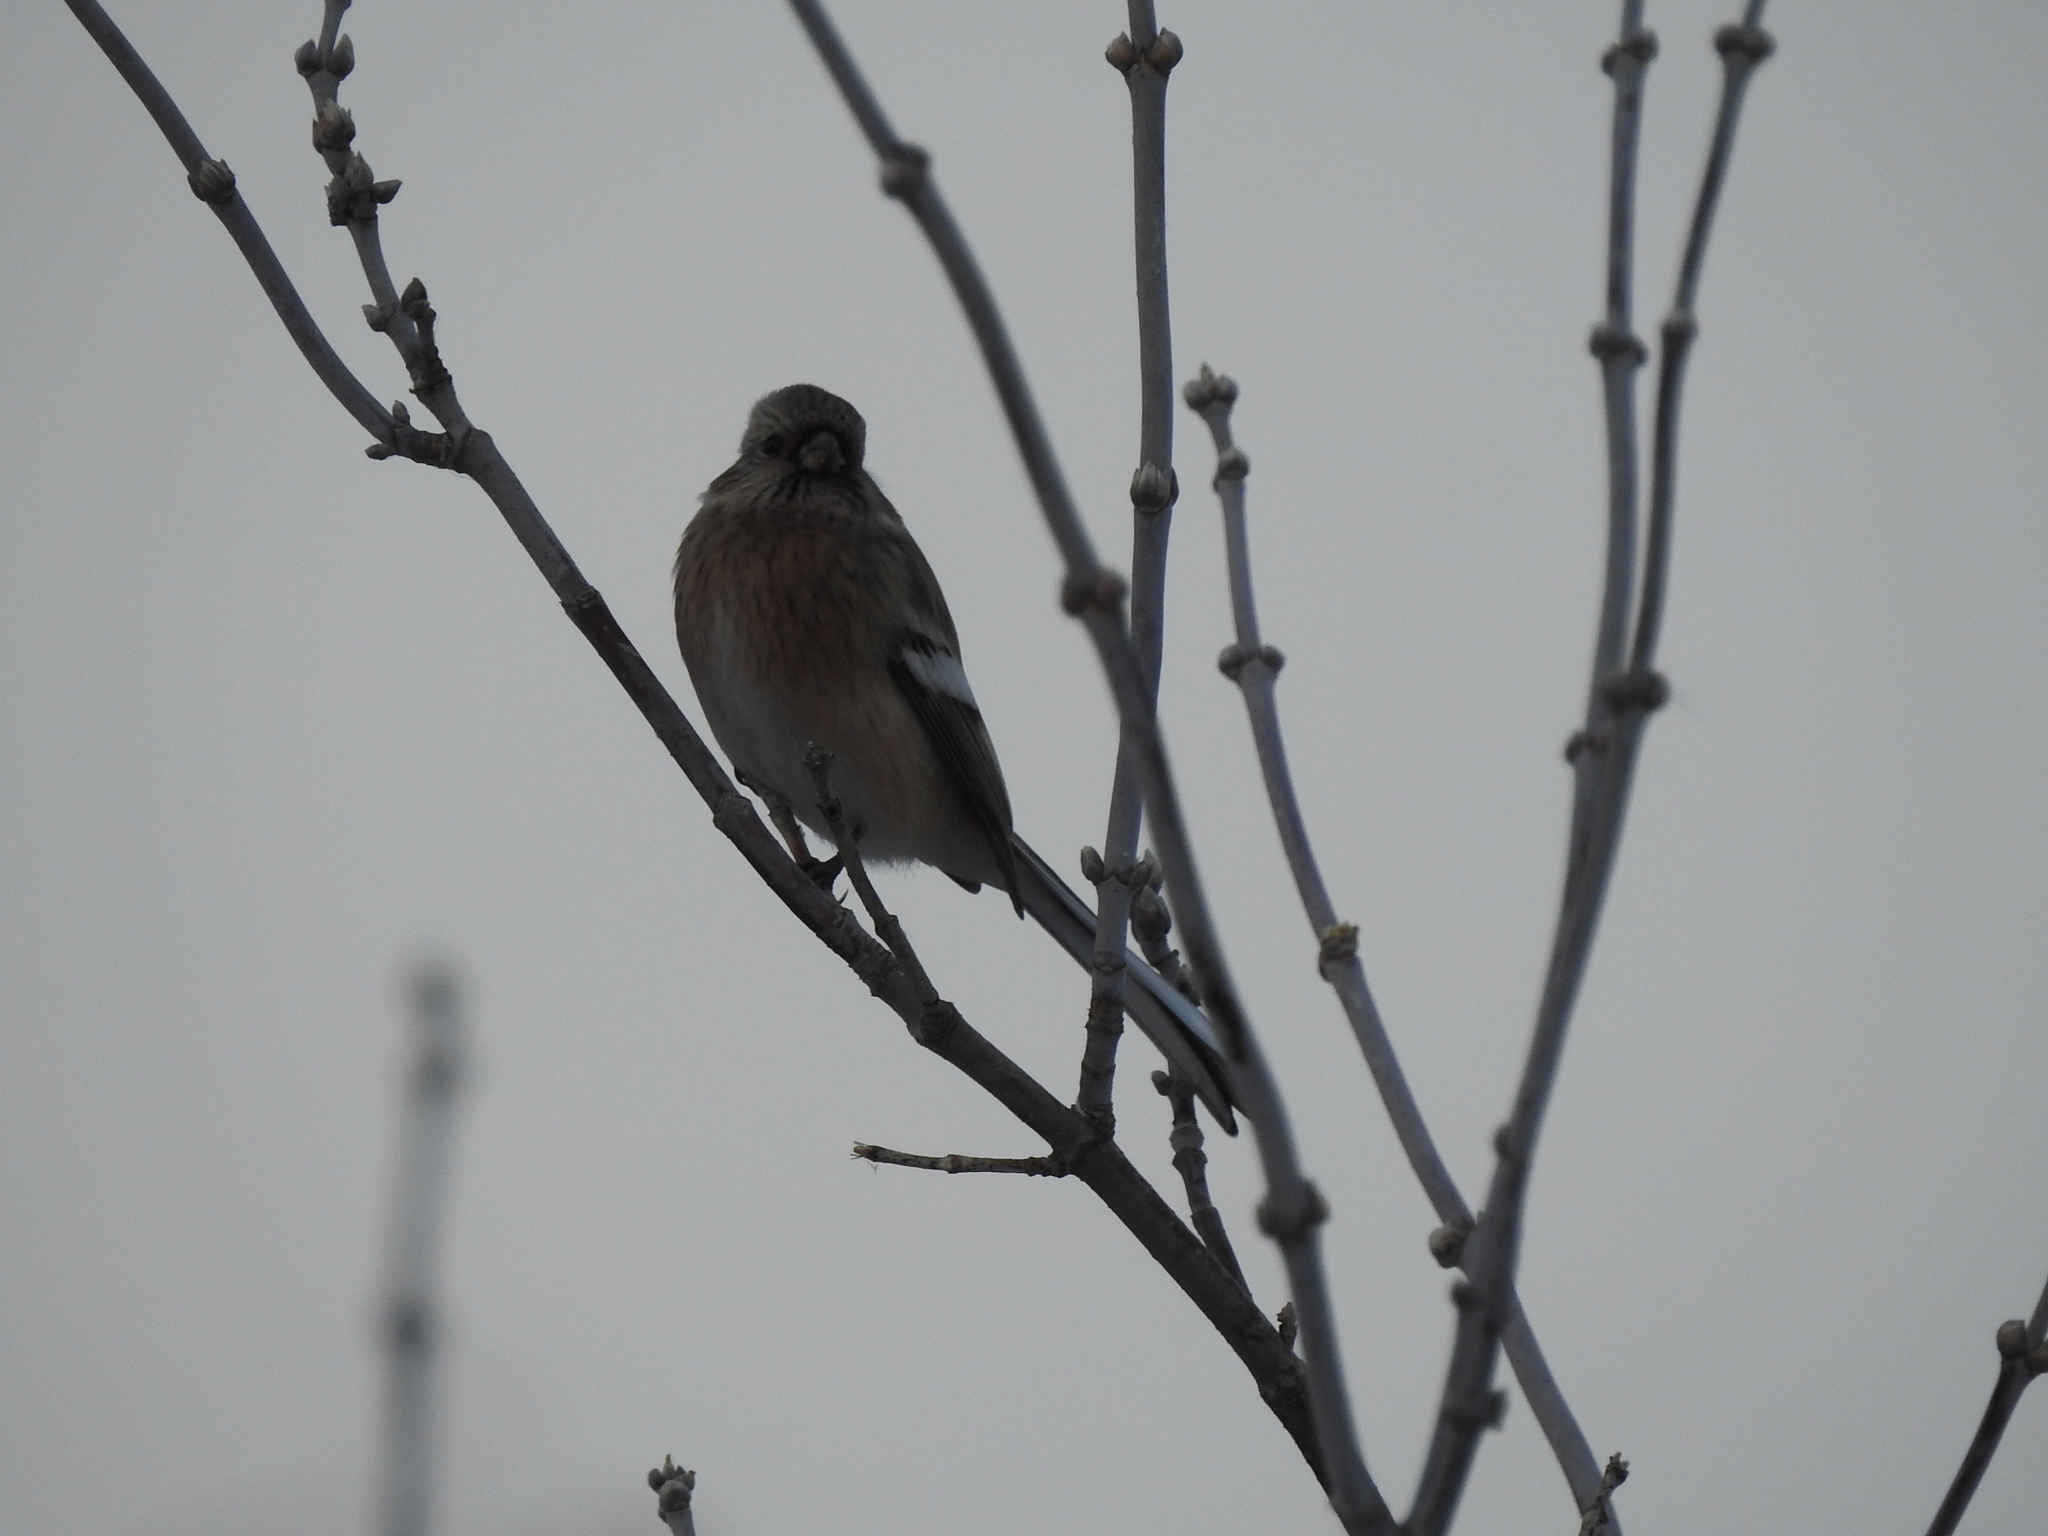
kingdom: Animalia
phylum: Chordata
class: Aves
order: Passeriformes
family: Fringillidae
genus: Carpodacus
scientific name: Carpodacus sibiricus
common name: Long-tailed rosefinch
